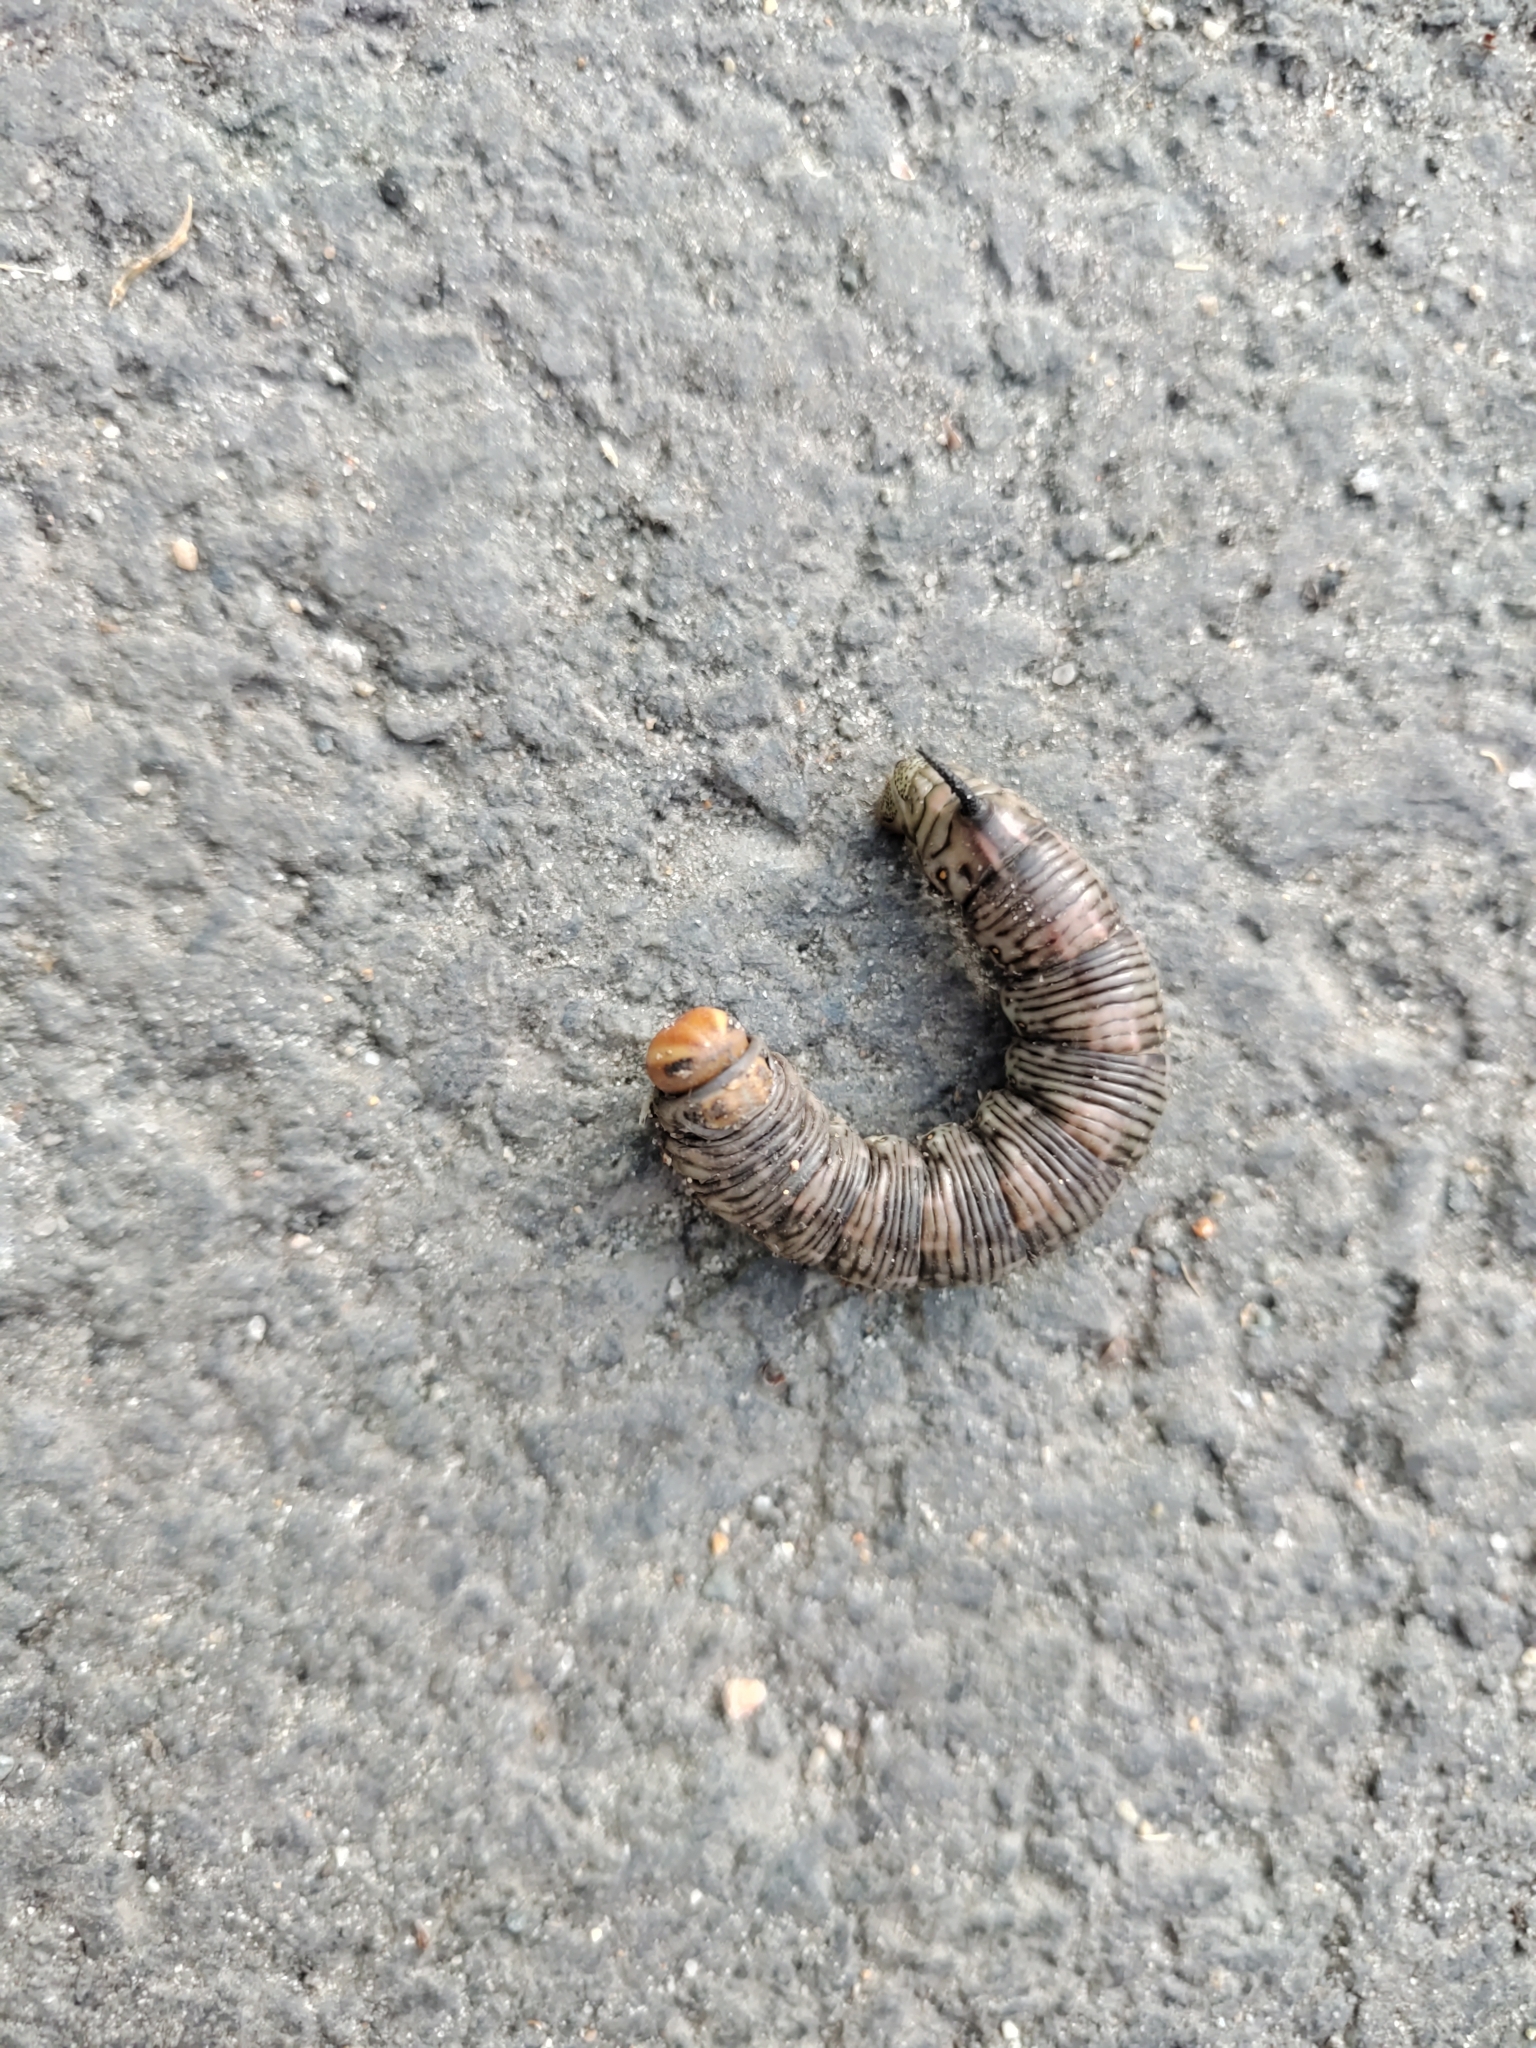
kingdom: Animalia
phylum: Arthropoda
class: Insecta
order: Lepidoptera
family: Sphingidae
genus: Sphinx
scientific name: Sphinx pinastri
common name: Pine hawk-moth
